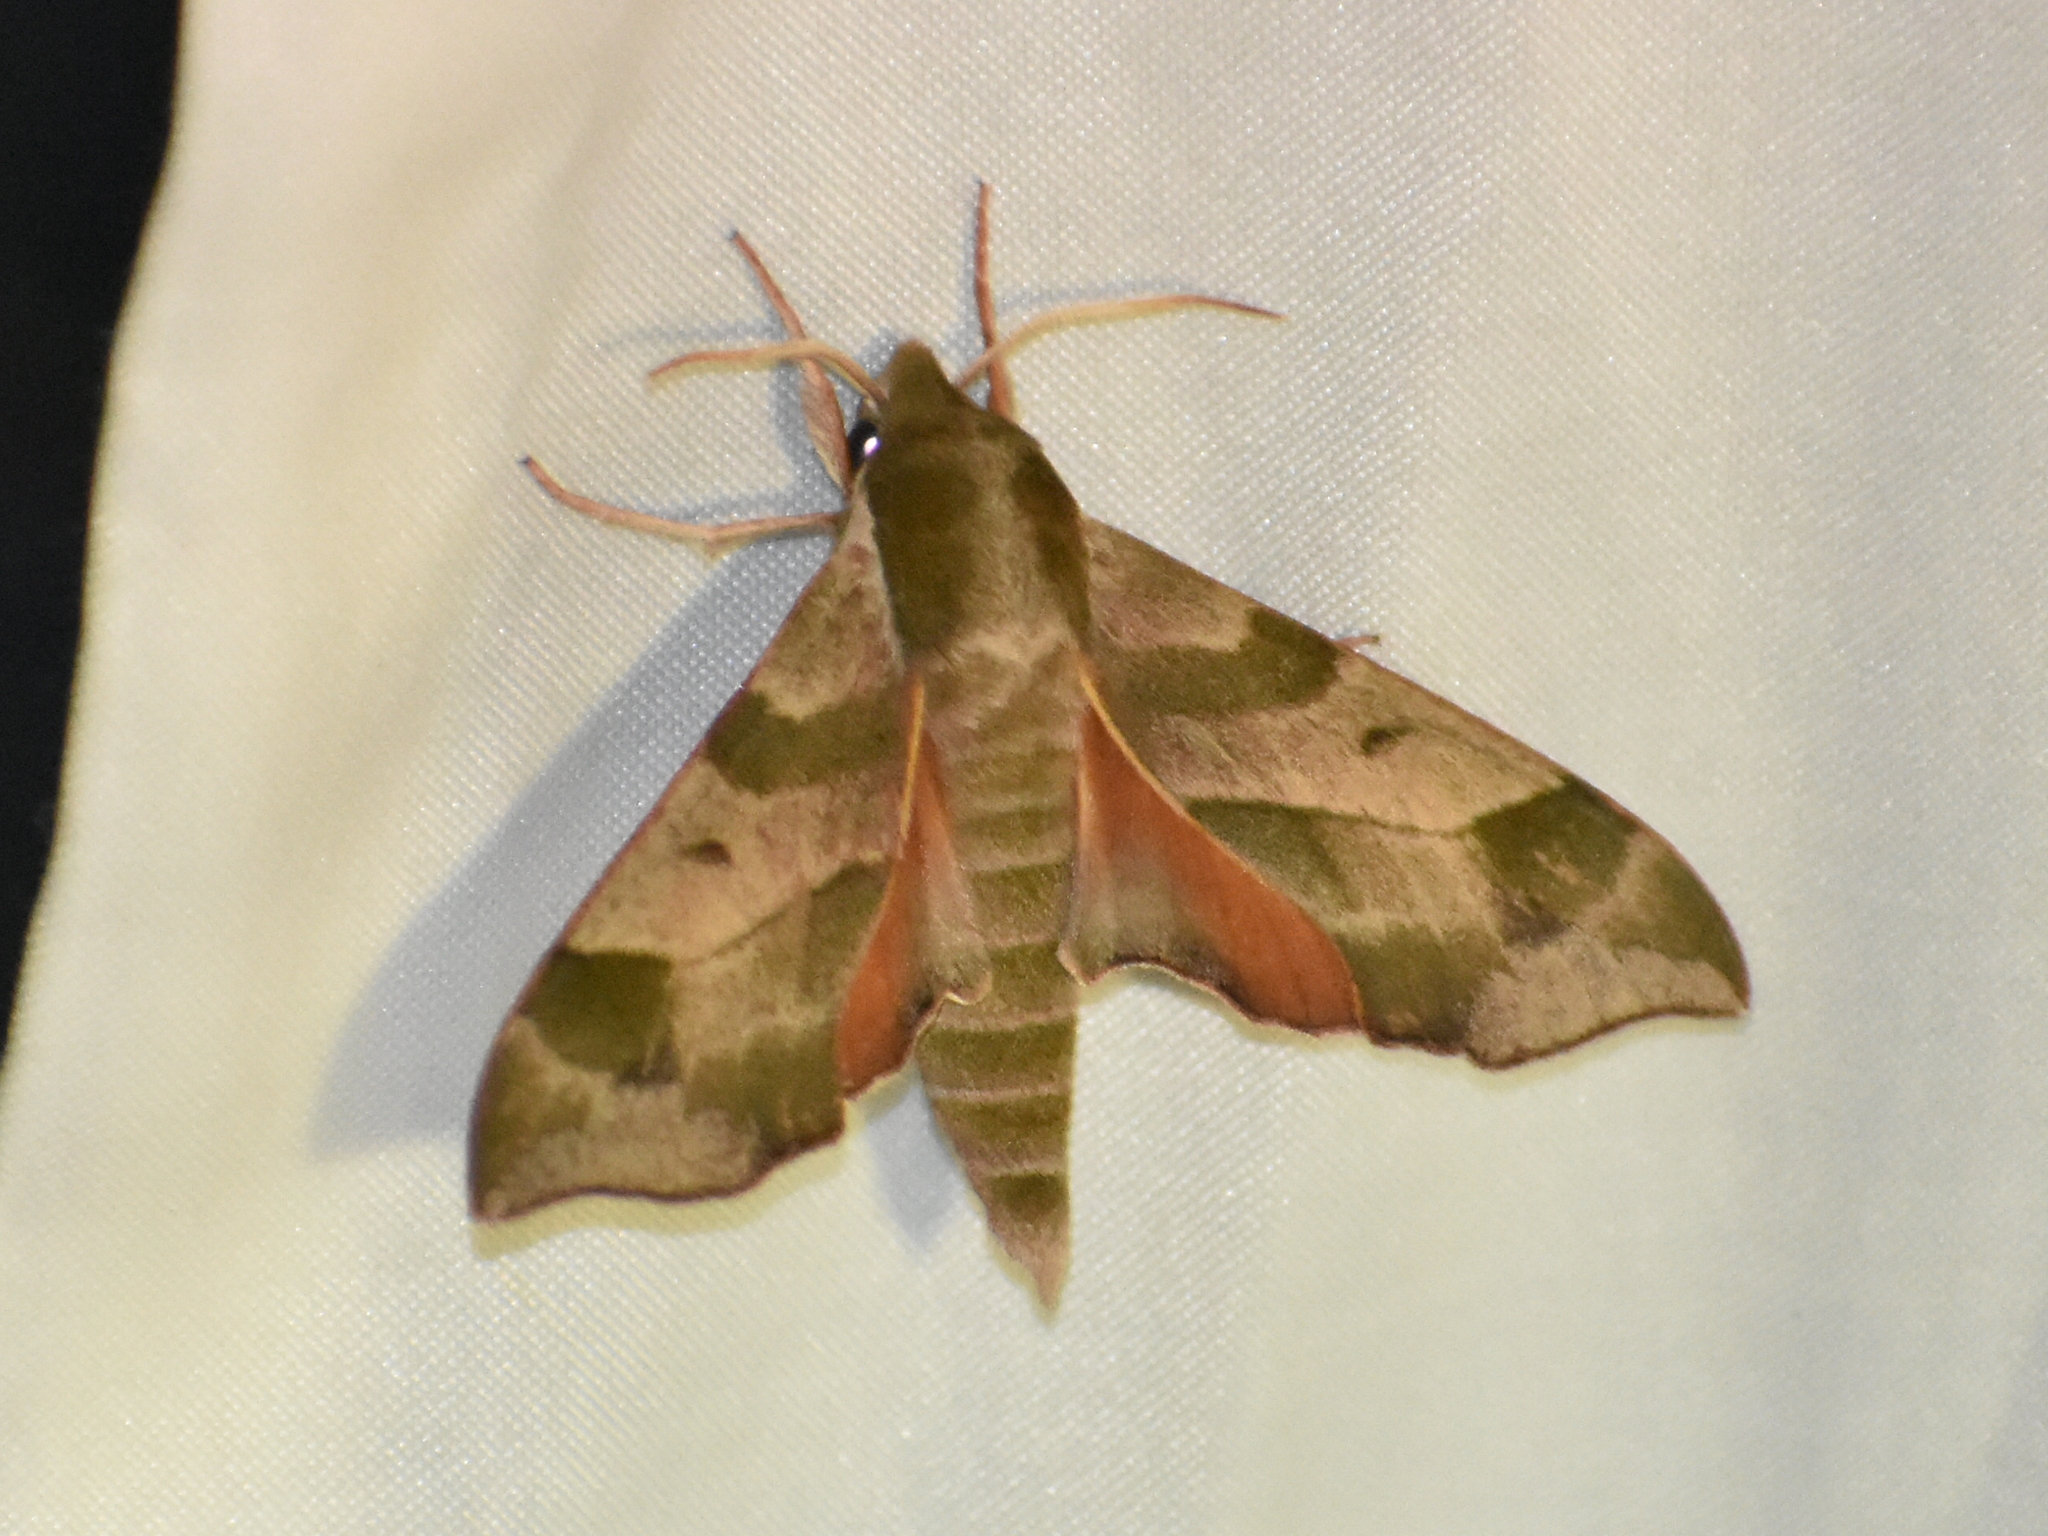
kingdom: Animalia
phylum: Arthropoda
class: Insecta
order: Lepidoptera
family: Sphingidae
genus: Darapsa
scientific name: Darapsa myron
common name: Hog sphinx
